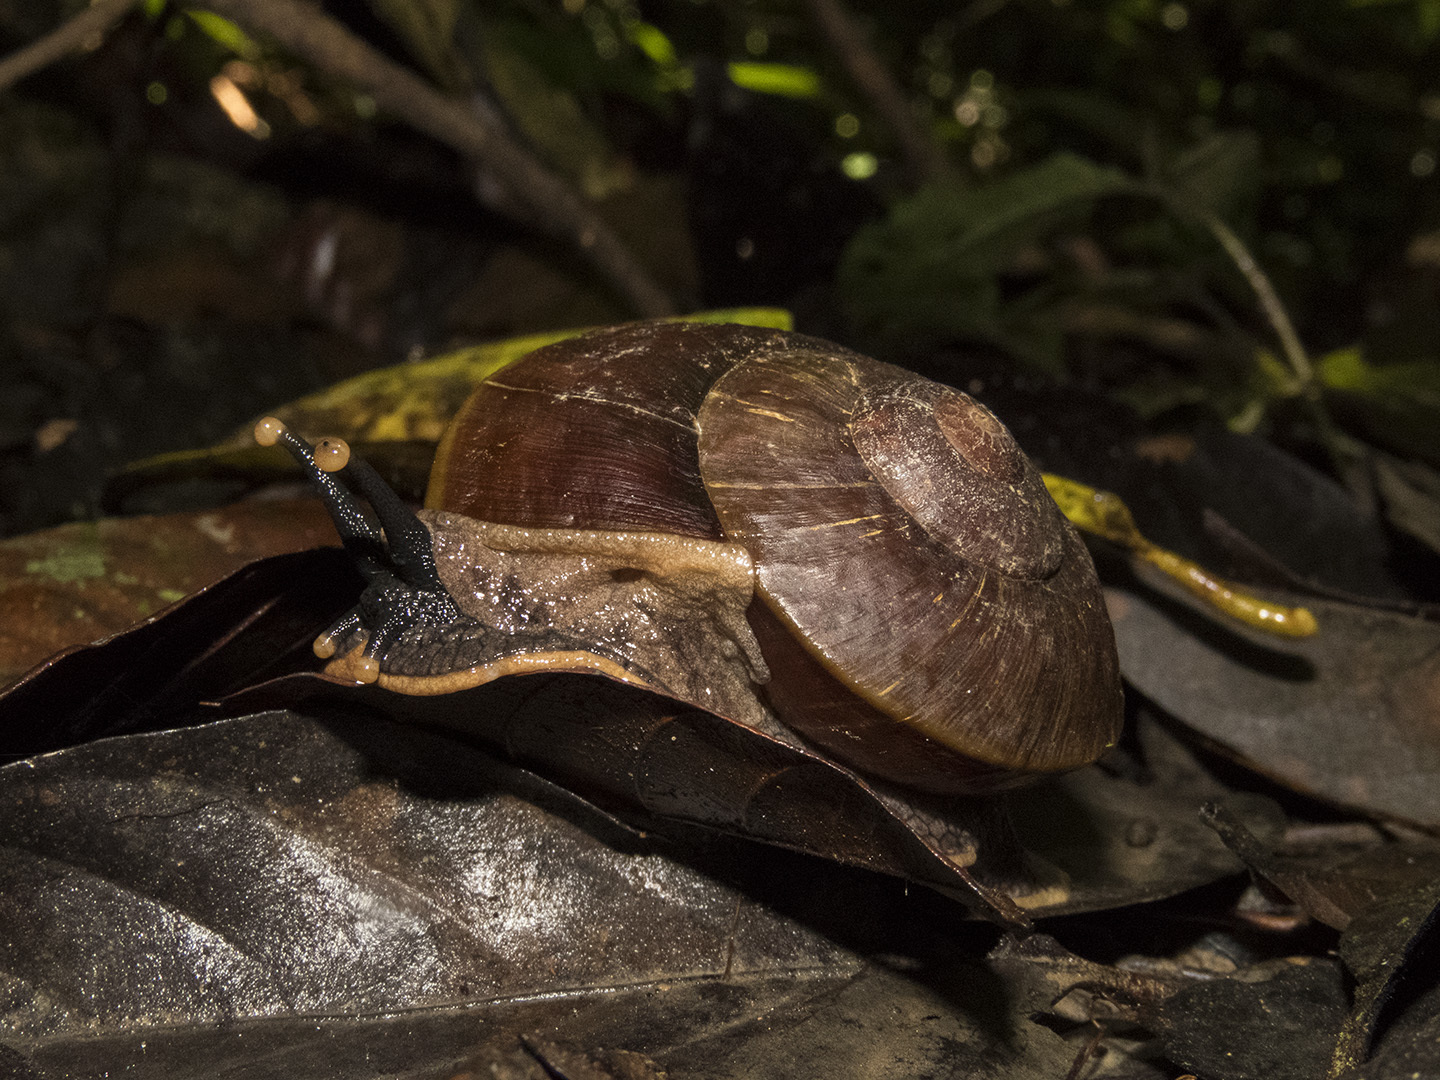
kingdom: Animalia
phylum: Mollusca
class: Gastropoda
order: Stylommatophora
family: Chronidae
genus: Exrhysota
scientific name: Exrhysota brookei
